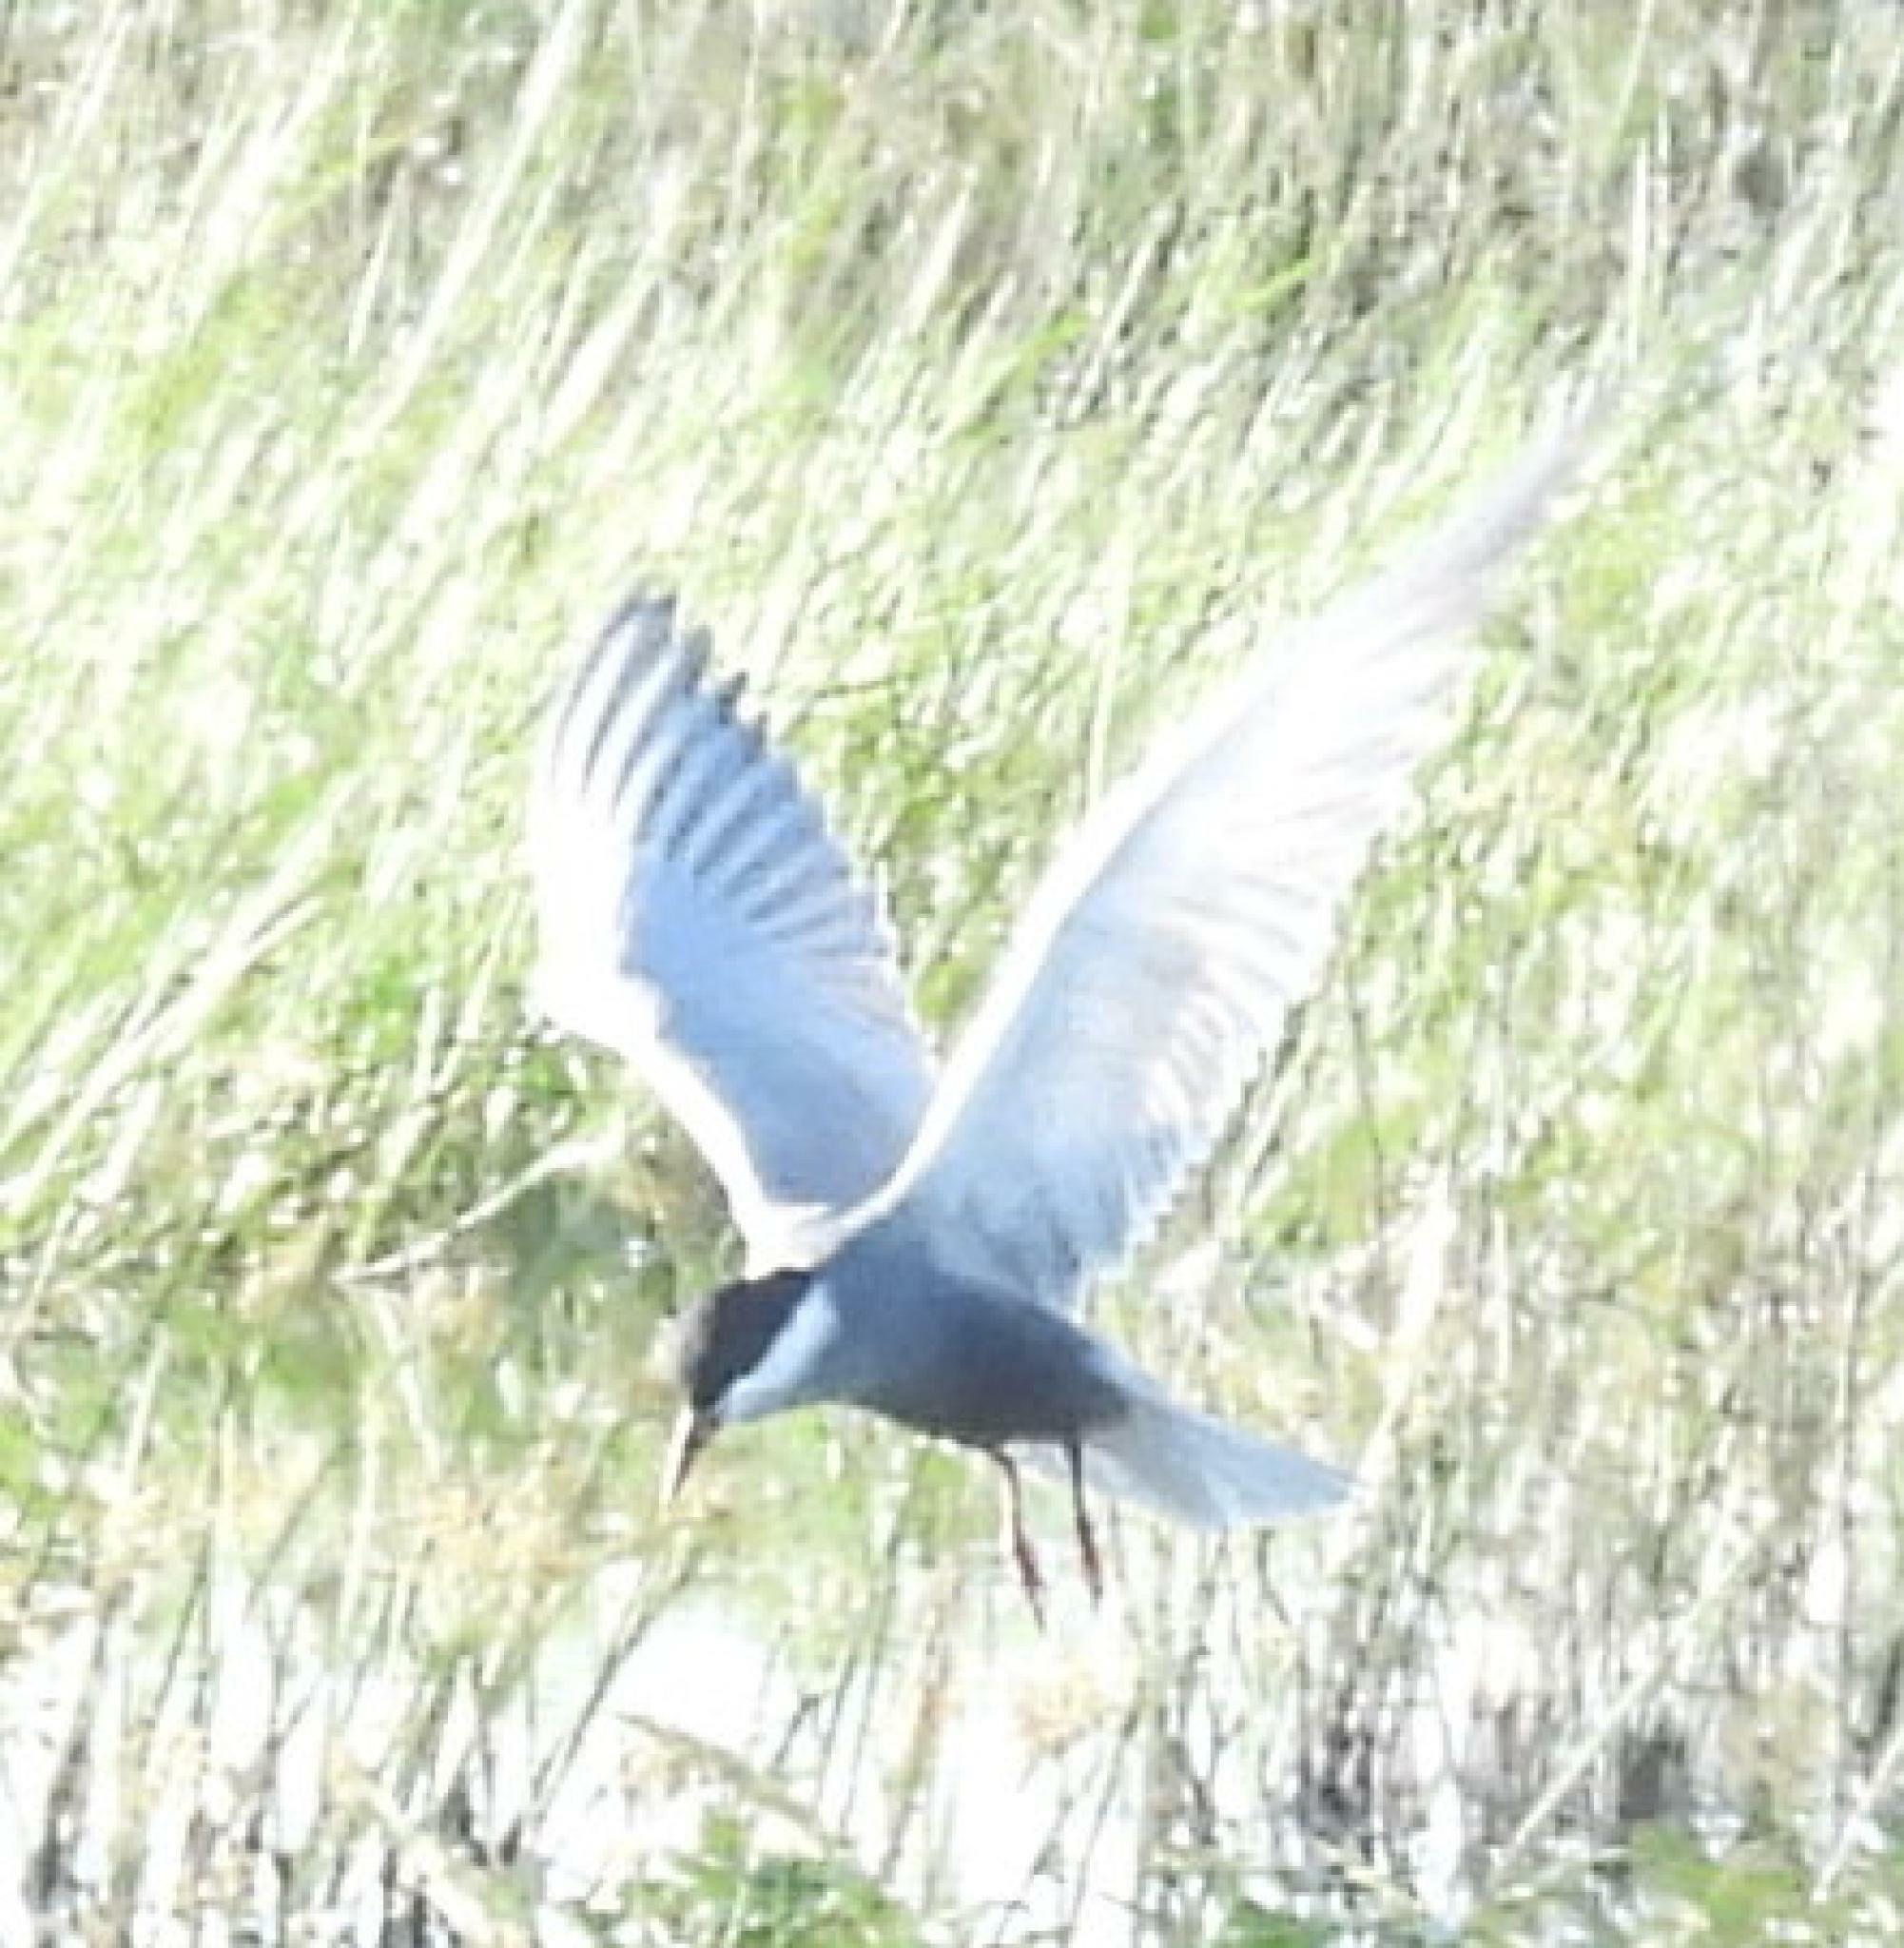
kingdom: Animalia
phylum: Chordata
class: Aves
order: Charadriiformes
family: Laridae
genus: Chlidonias
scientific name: Chlidonias hybrida
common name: Whiskered tern
